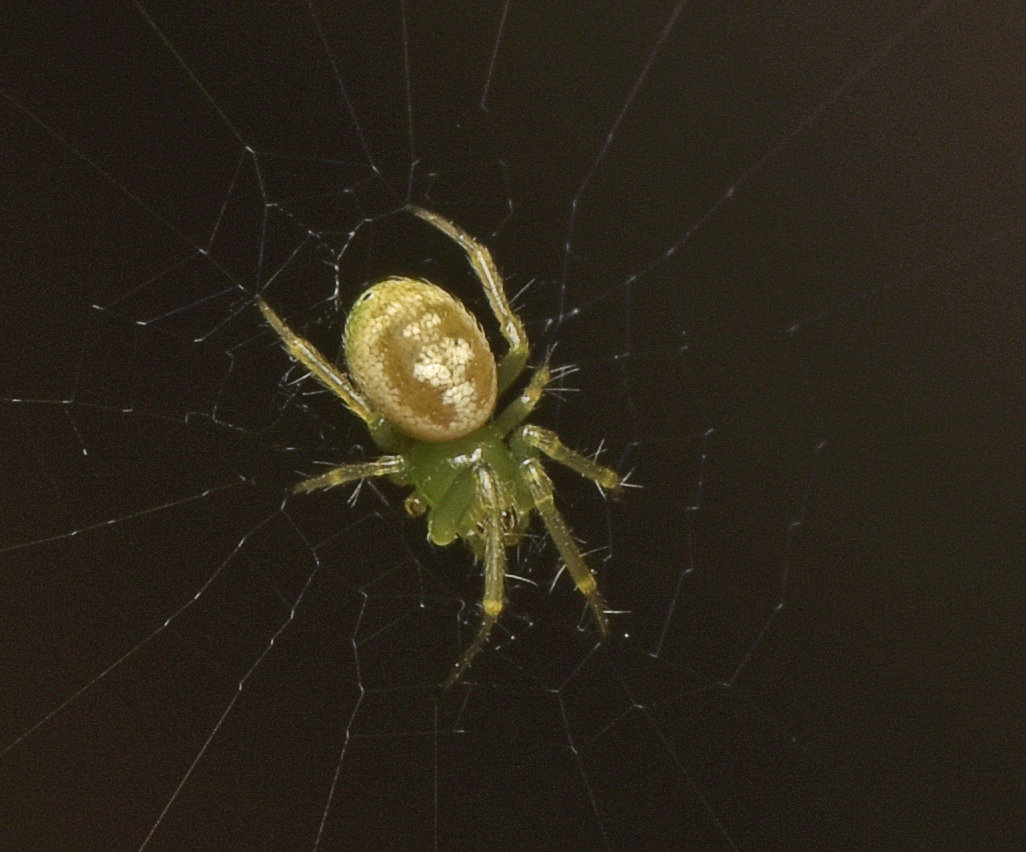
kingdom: Animalia
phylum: Arthropoda
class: Arachnida
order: Araneae
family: Araneidae
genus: Prasonica
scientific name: Prasonica nigrotaeniata
